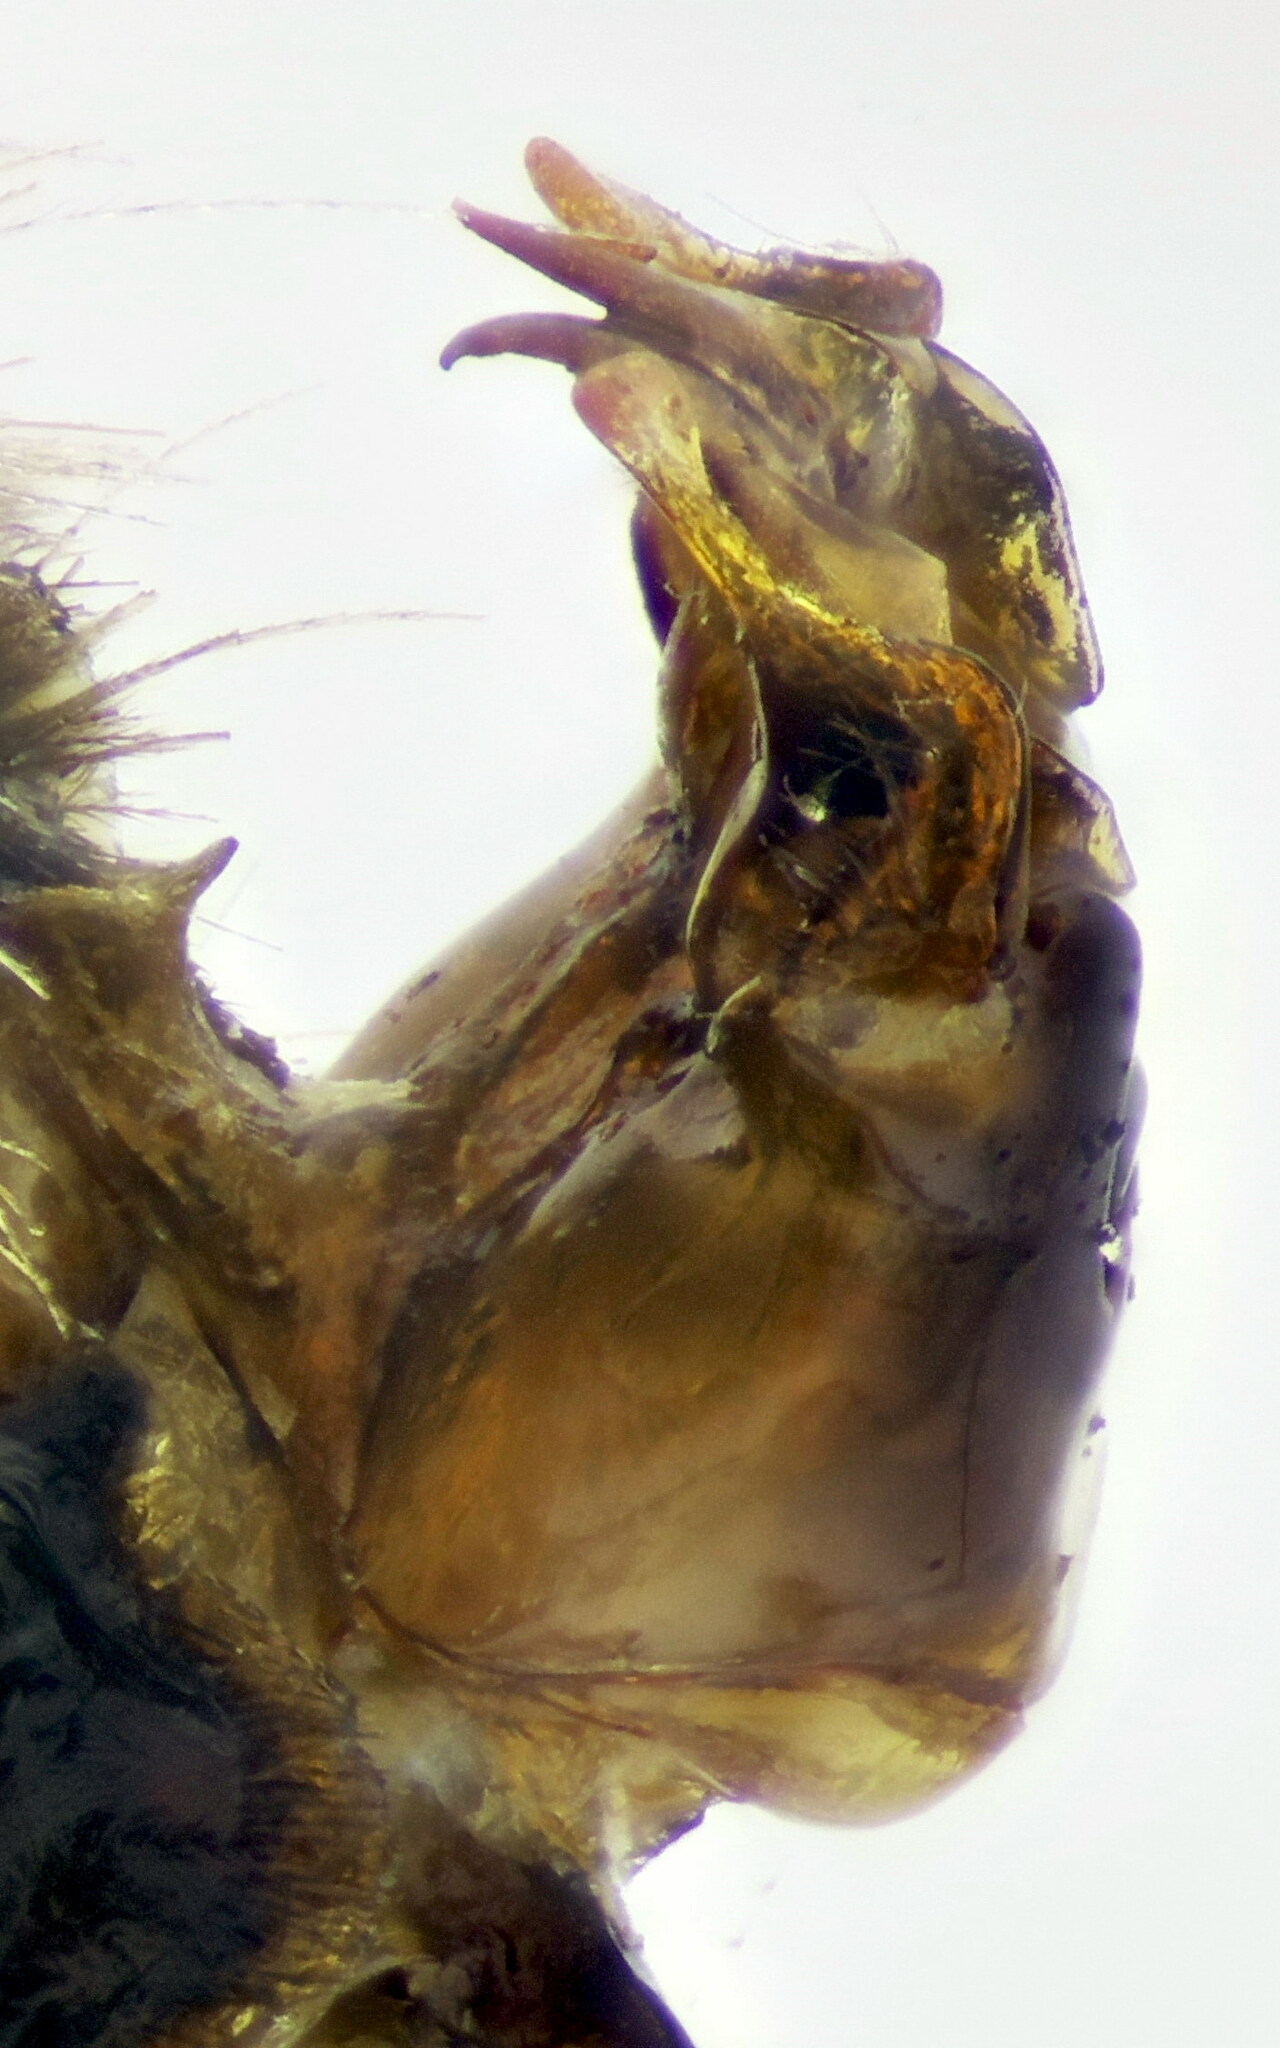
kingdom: Animalia
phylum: Arthropoda
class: Insecta
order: Hymenoptera
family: Apidae
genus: Eucera
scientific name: Eucera nigrescens
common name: Tuberculate long-horned bee
